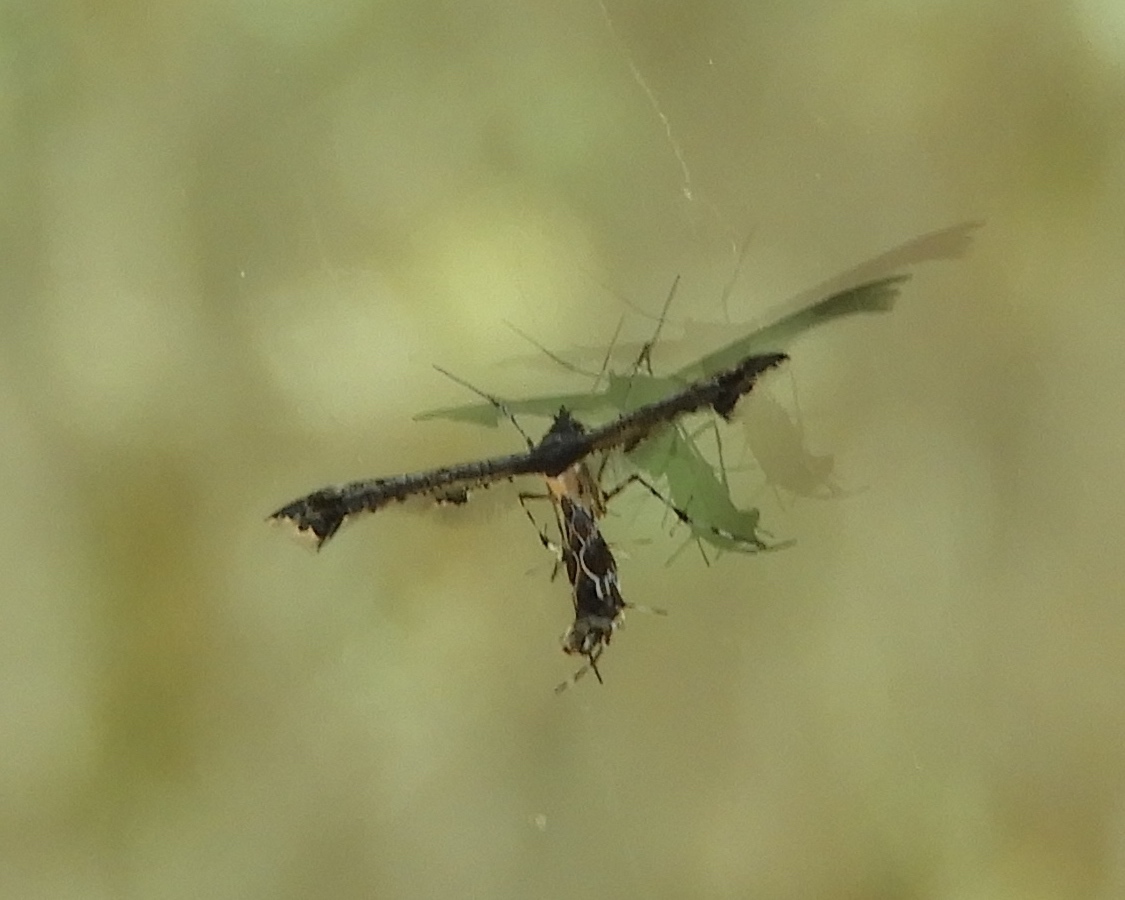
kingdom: Animalia
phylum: Arthropoda
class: Insecta
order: Lepidoptera
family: Pterophoridae
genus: Anstenoptilia
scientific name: Anstenoptilia marmarodactyla
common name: Moth
